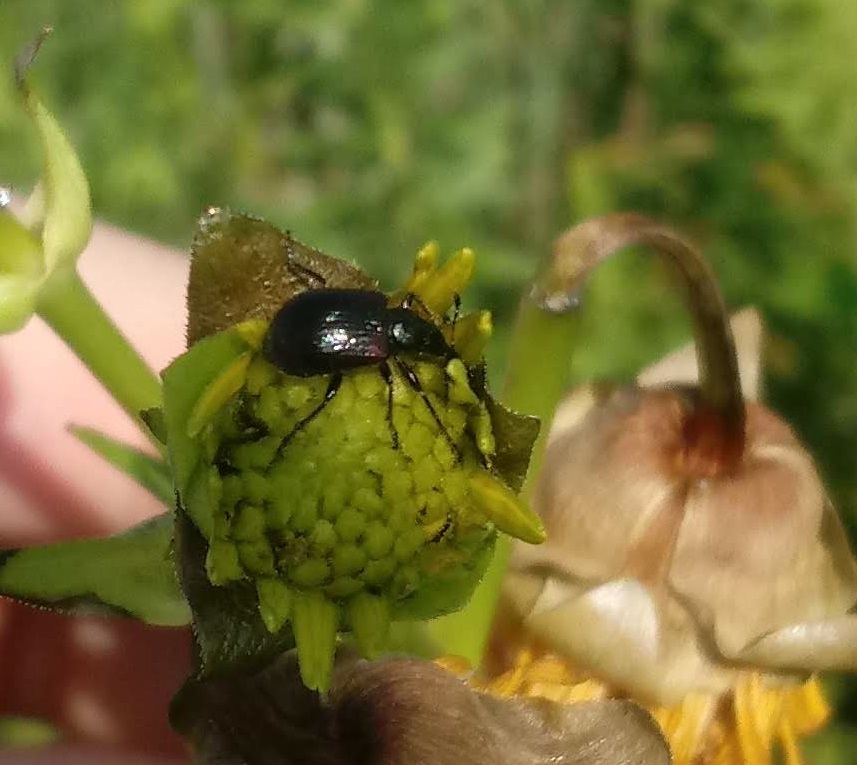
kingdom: Animalia
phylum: Arthropoda
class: Insecta
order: Coleoptera
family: Attelabidae
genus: Haplorhynchites
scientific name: Haplorhynchites aeneus
